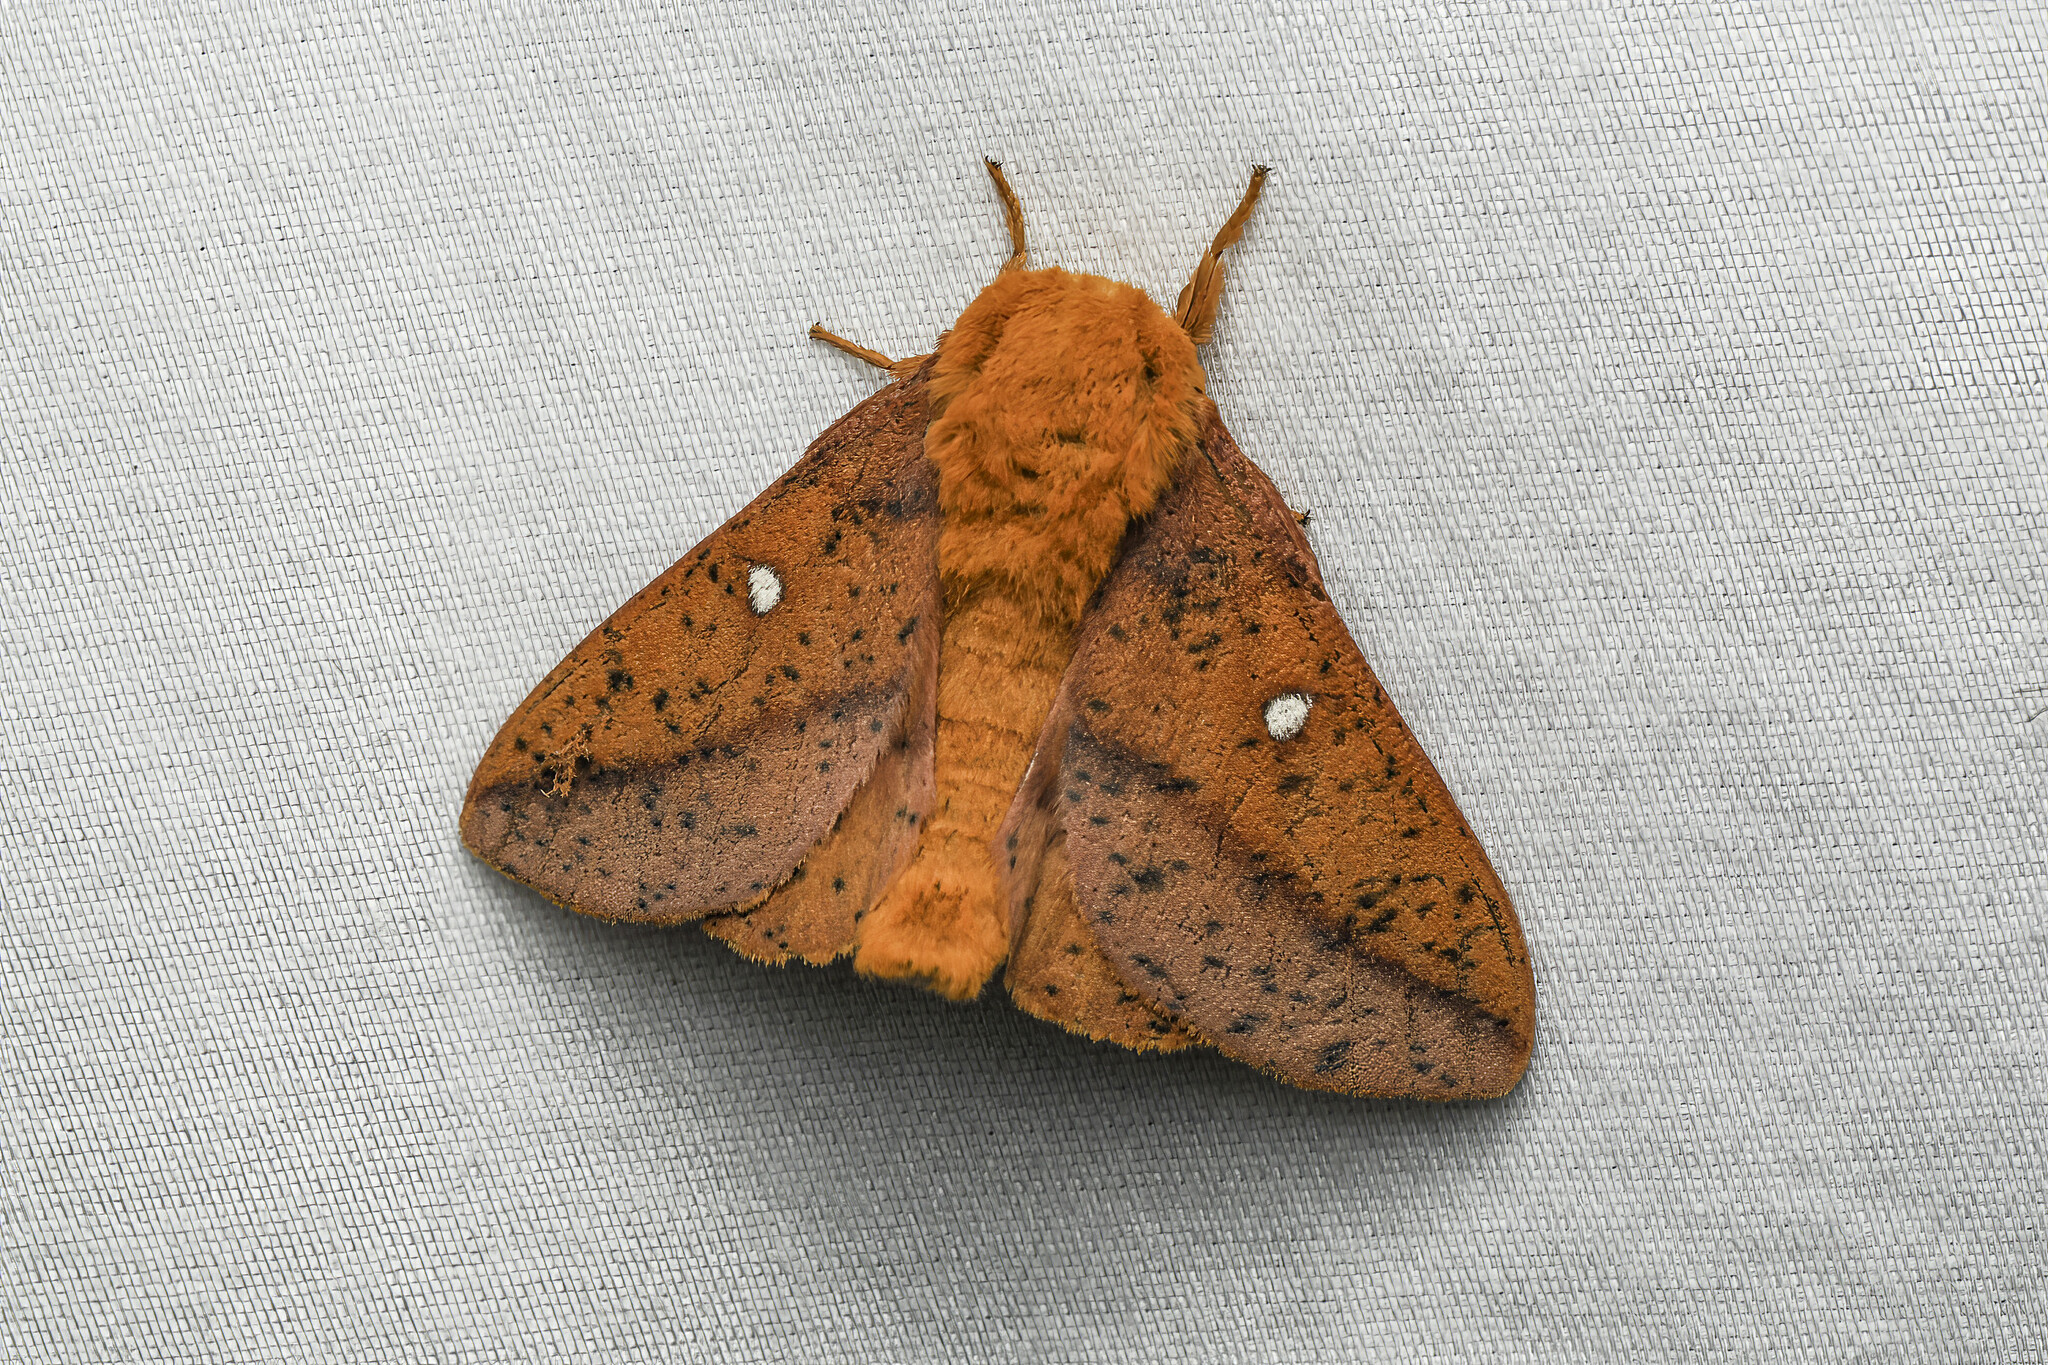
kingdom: Animalia
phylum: Arthropoda
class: Insecta
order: Lepidoptera
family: Saturniidae
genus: Anisota
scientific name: Anisota stigma
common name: Spiny oakworm moth
